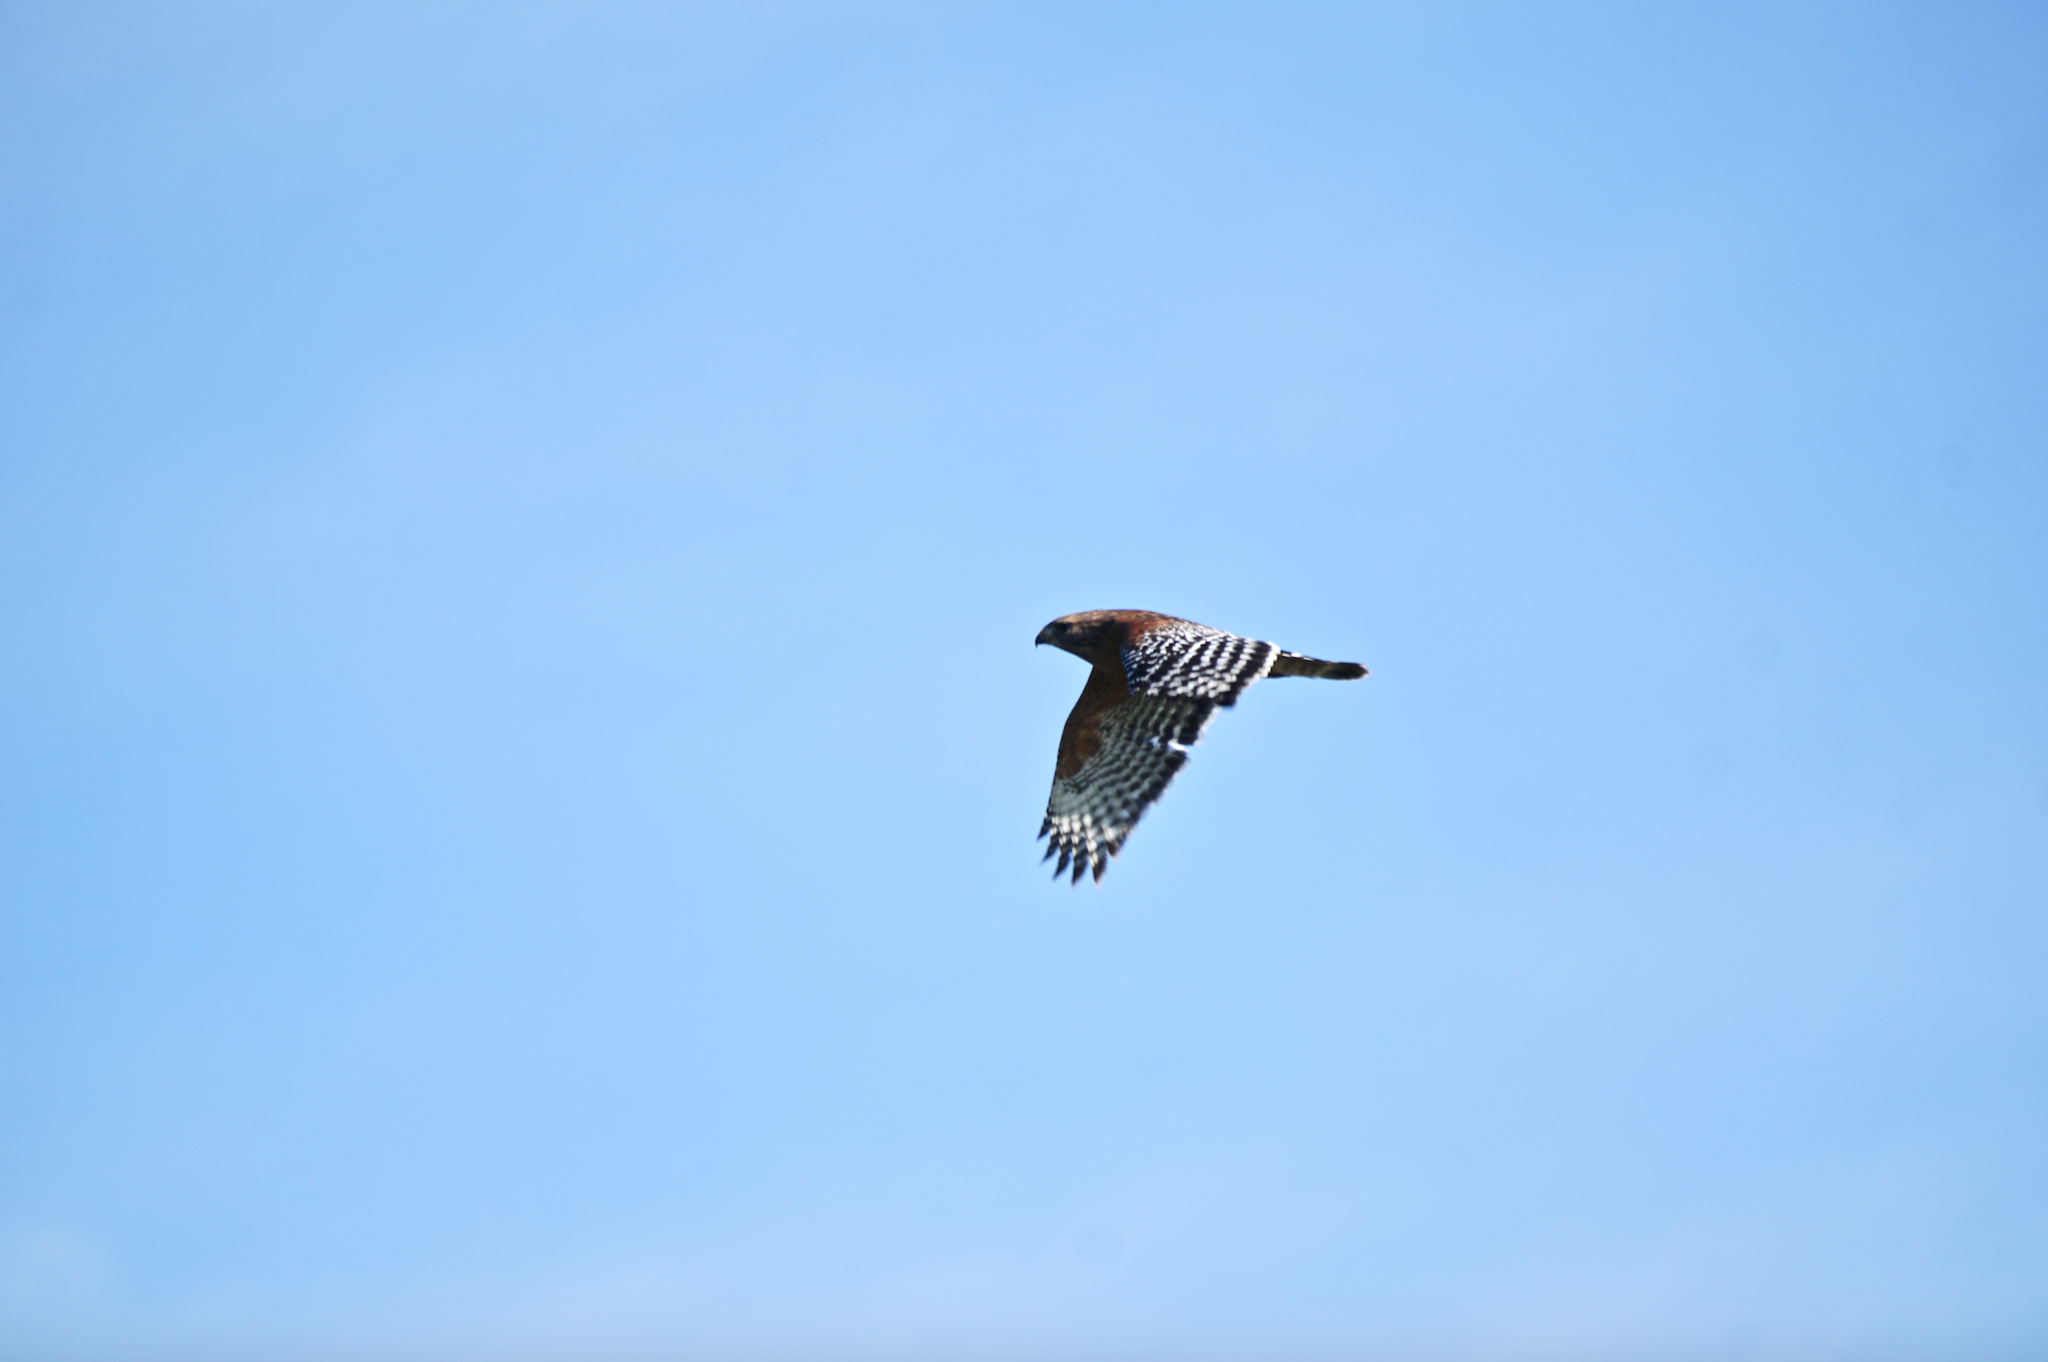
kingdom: Animalia
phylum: Chordata
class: Aves
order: Accipitriformes
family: Accipitridae
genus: Buteo
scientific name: Buteo lineatus
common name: Red-shouldered hawk
